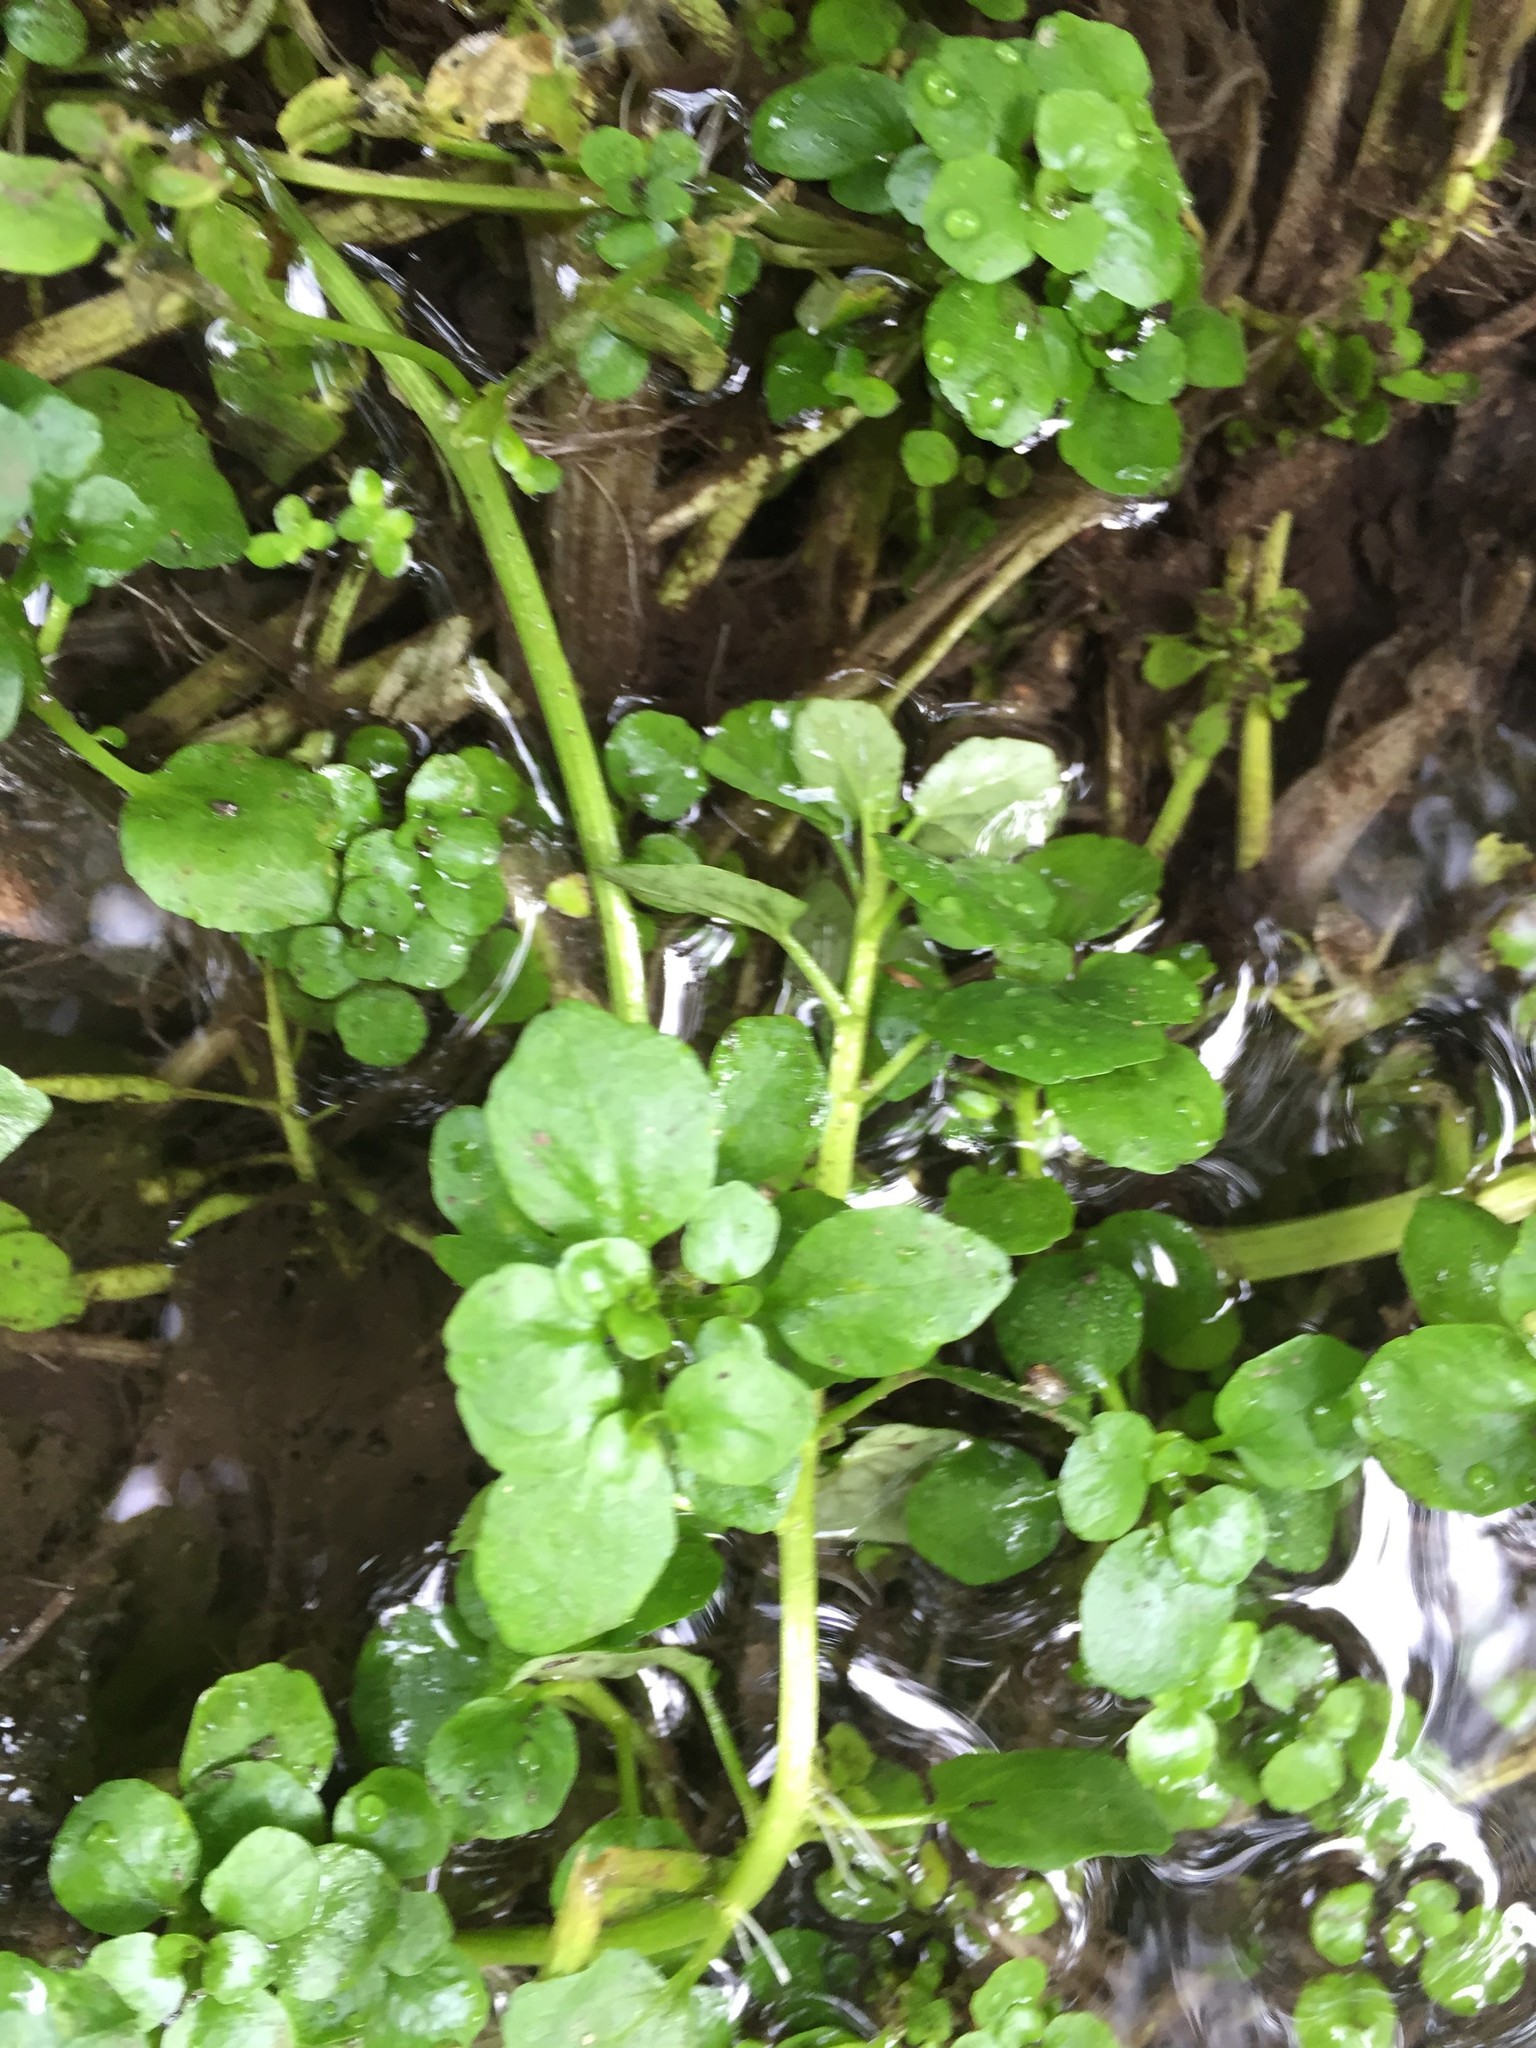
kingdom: Plantae
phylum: Tracheophyta
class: Magnoliopsida
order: Brassicales
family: Brassicaceae
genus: Nasturtium
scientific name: Nasturtium officinale
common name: Watercress
